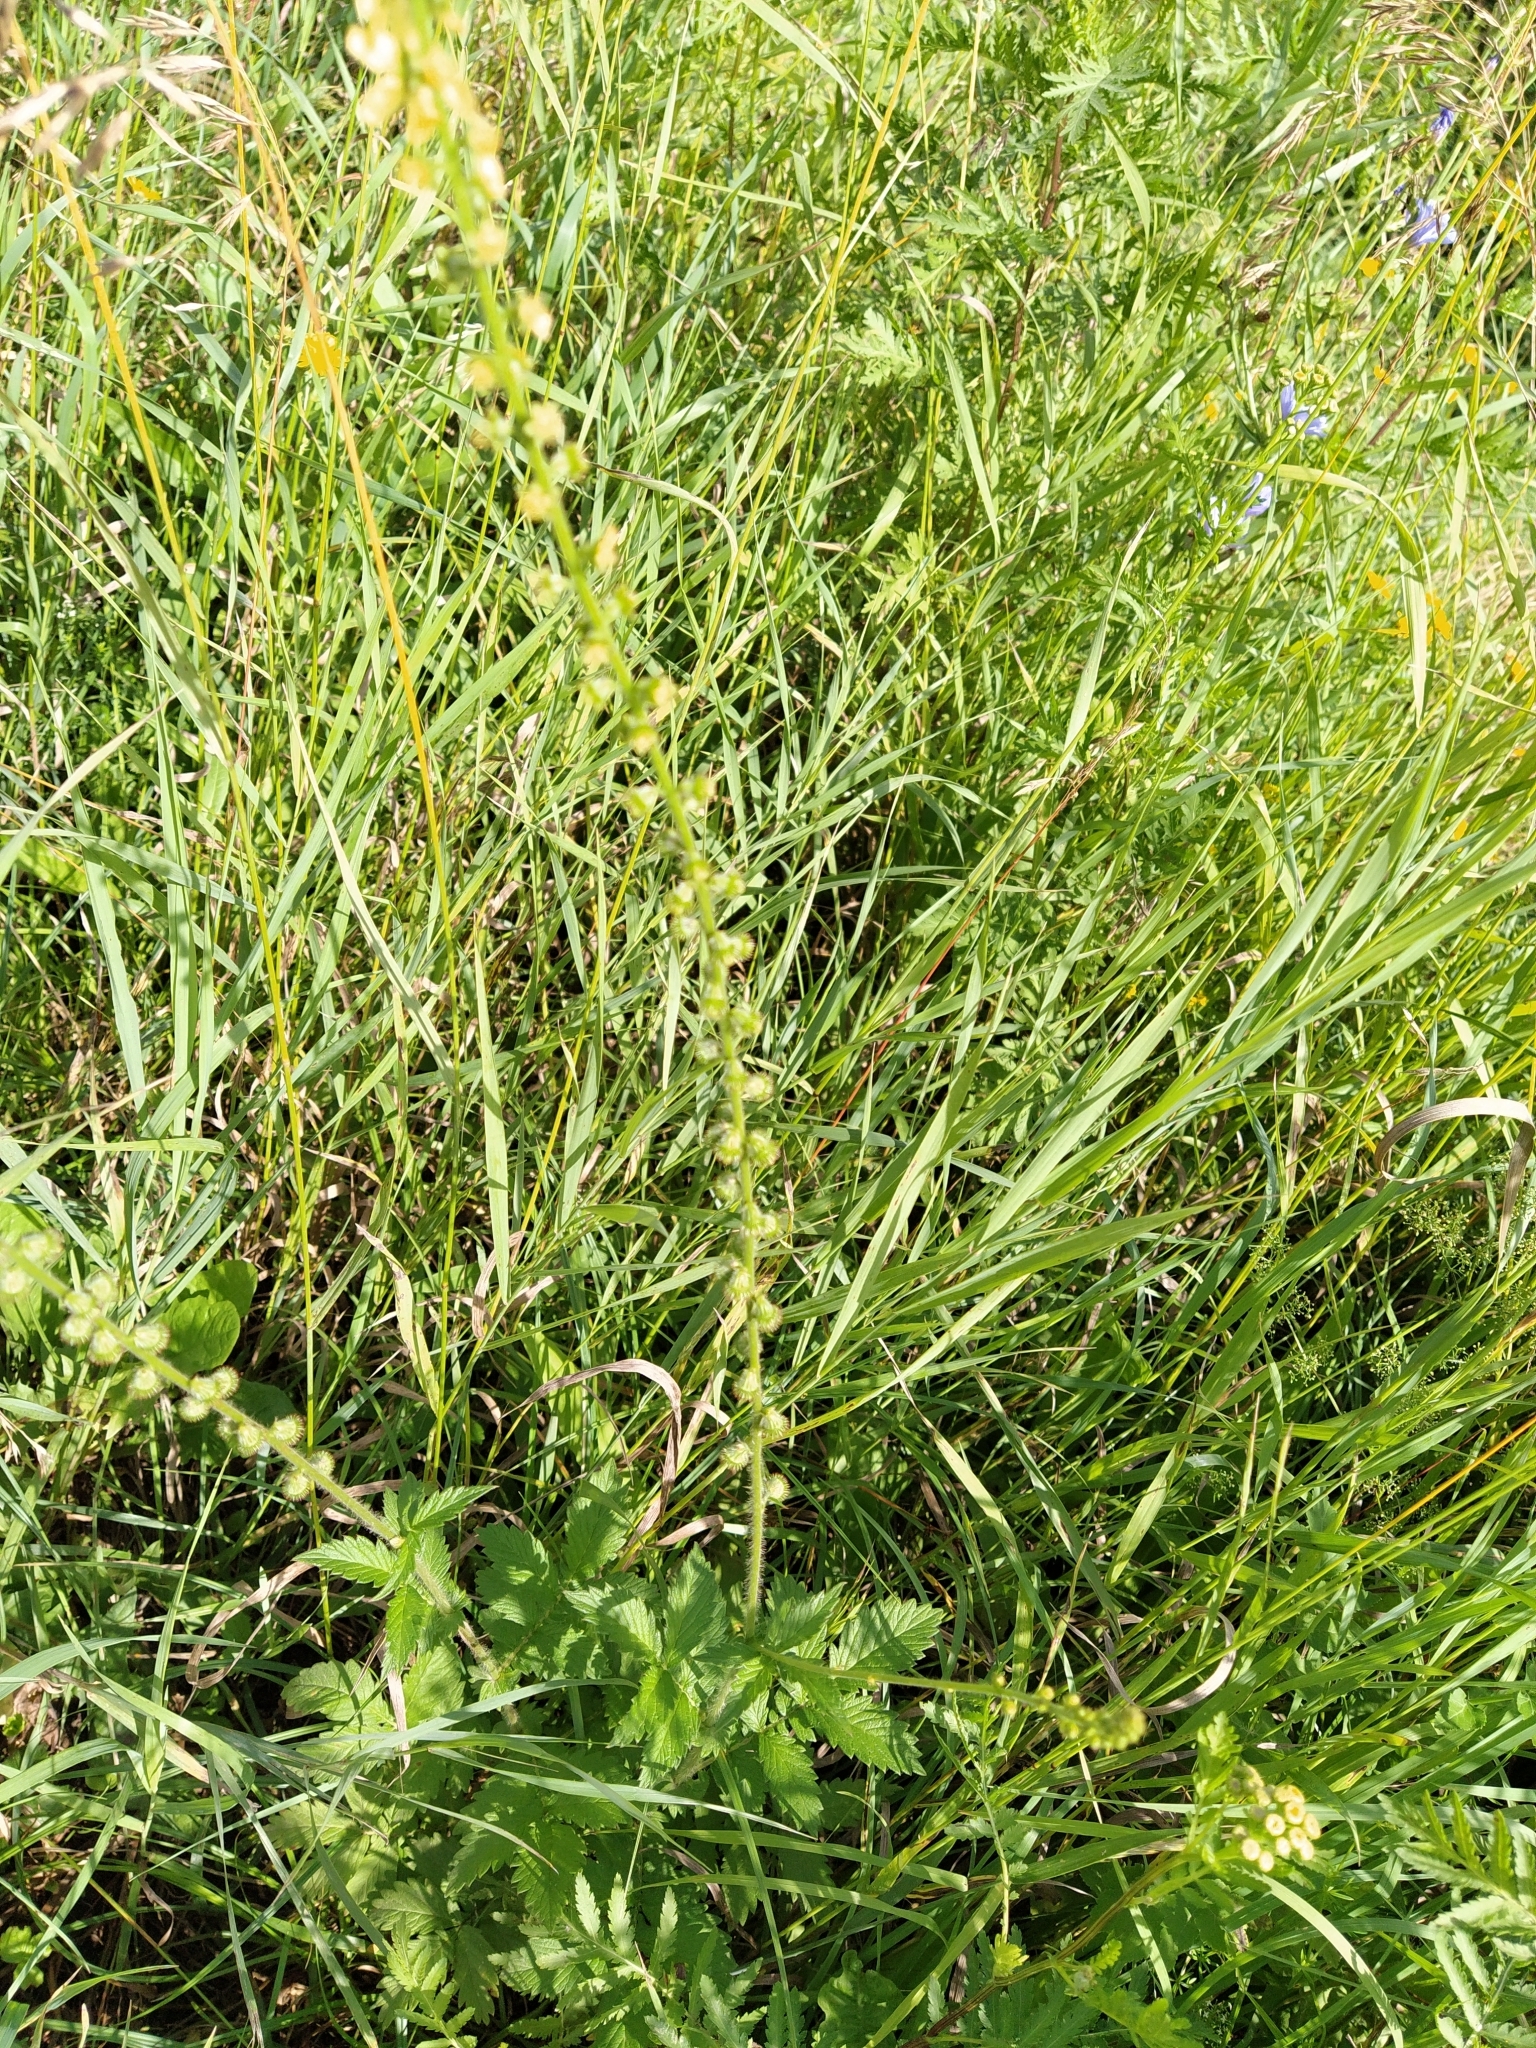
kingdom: Plantae
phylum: Tracheophyta
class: Magnoliopsida
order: Rosales
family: Rosaceae
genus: Agrimonia
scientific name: Agrimonia eupatoria
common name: Agrimony
